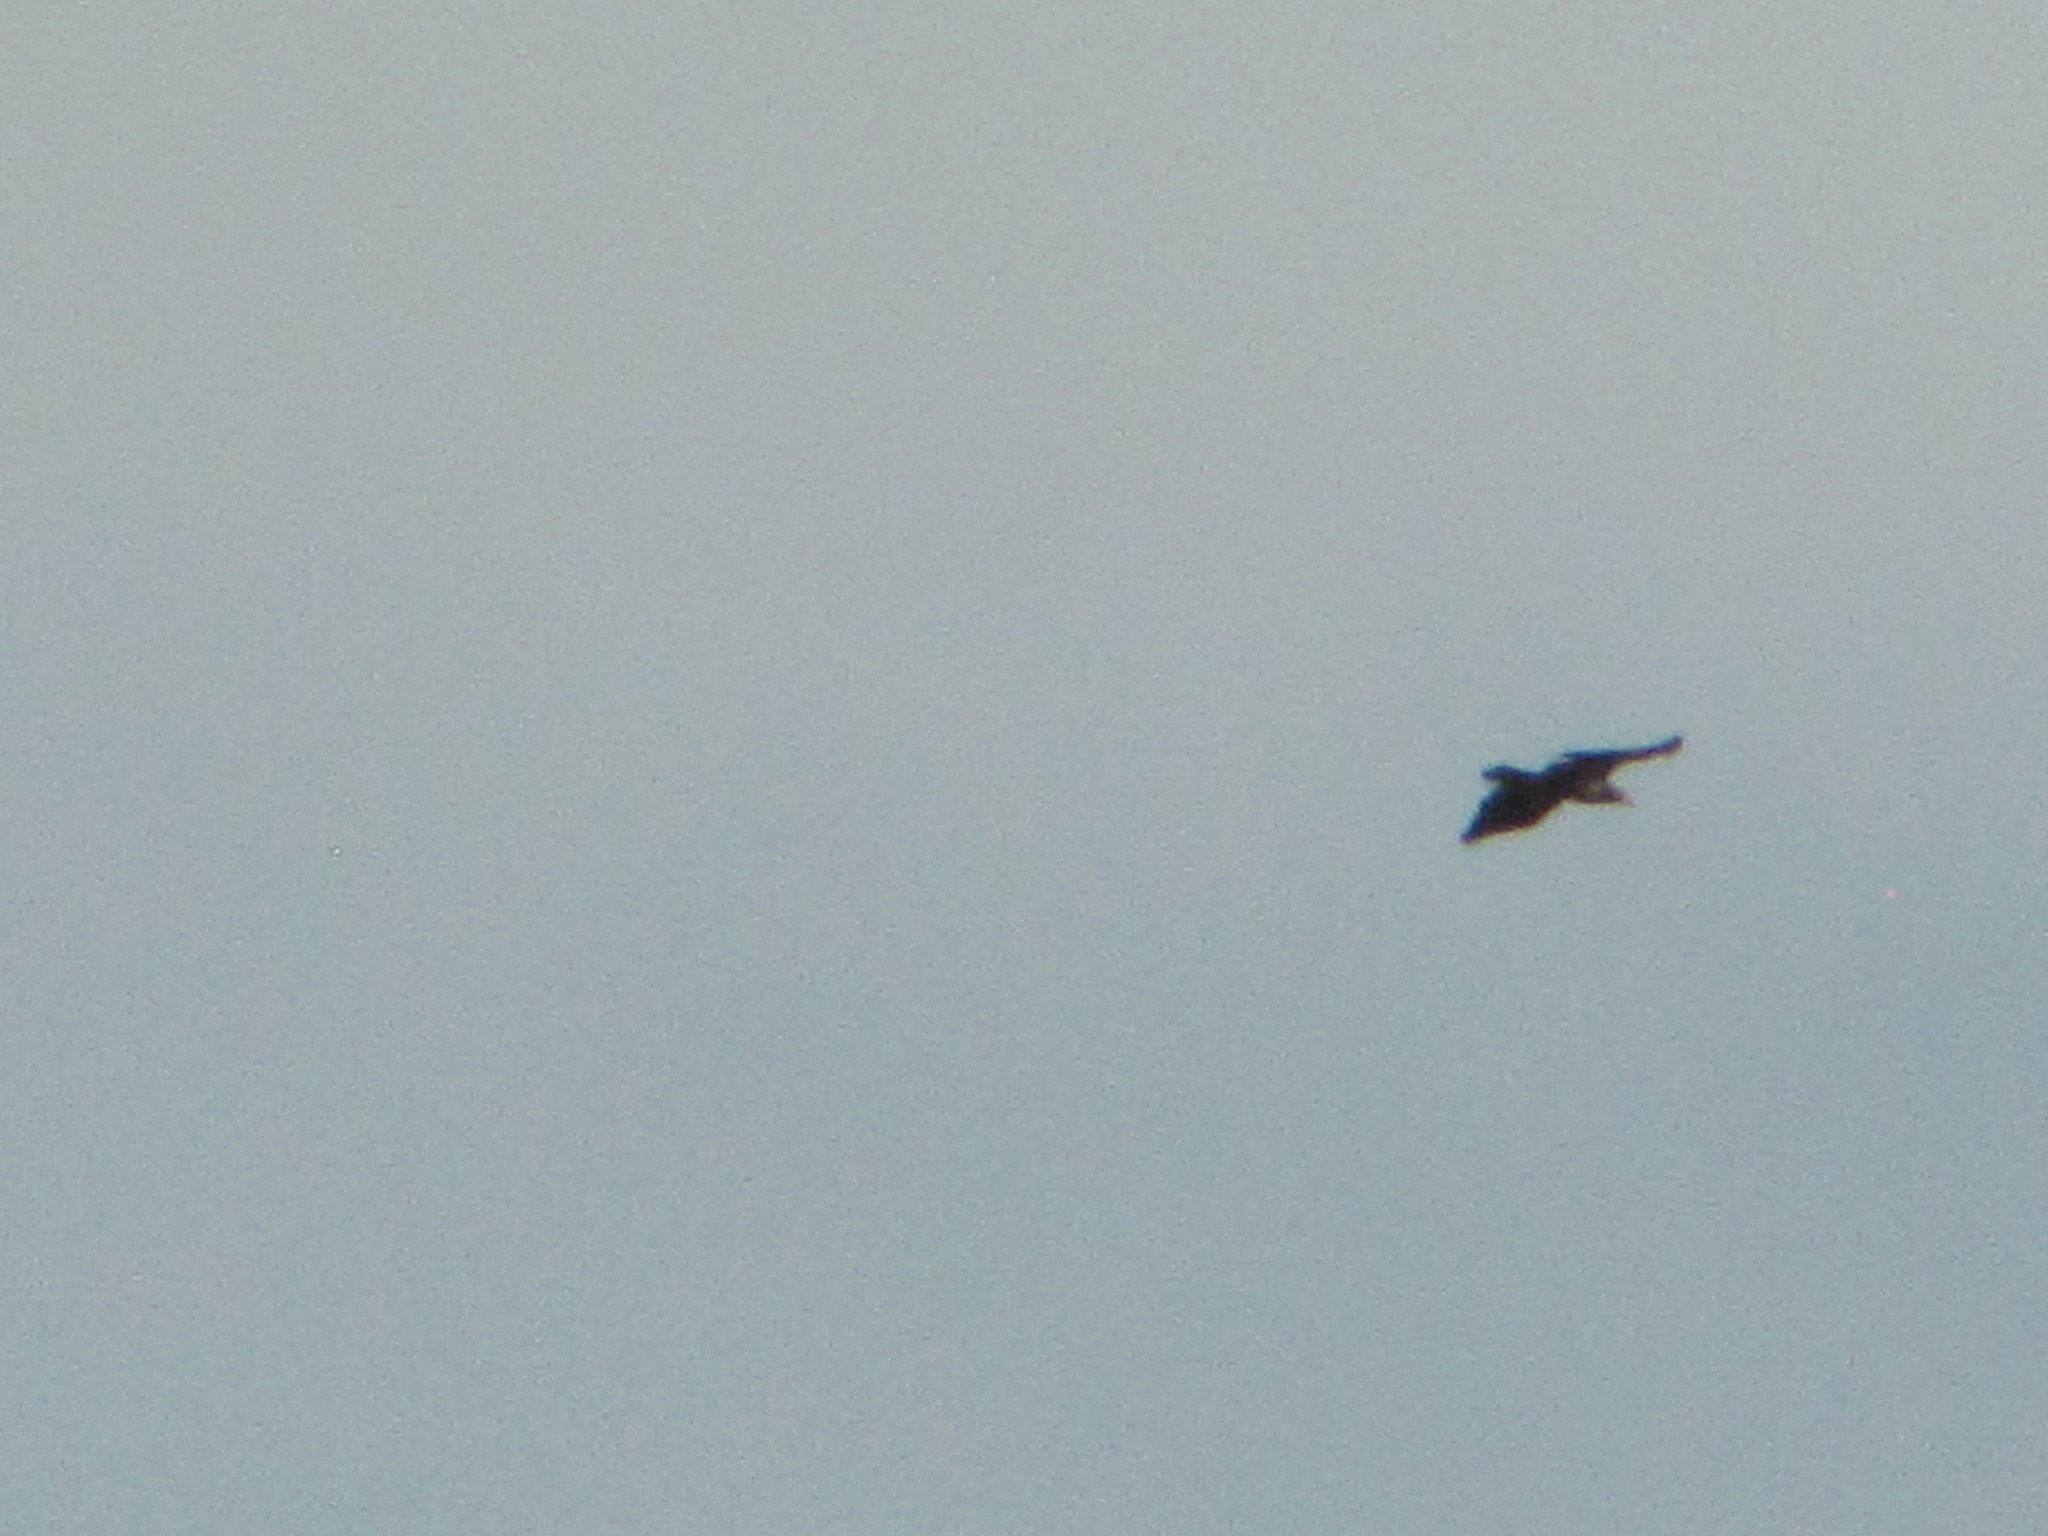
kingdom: Animalia
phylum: Chordata
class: Aves
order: Accipitriformes
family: Accipitridae
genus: Haliaeetus
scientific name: Haliaeetus leucocephalus
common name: Bald eagle
